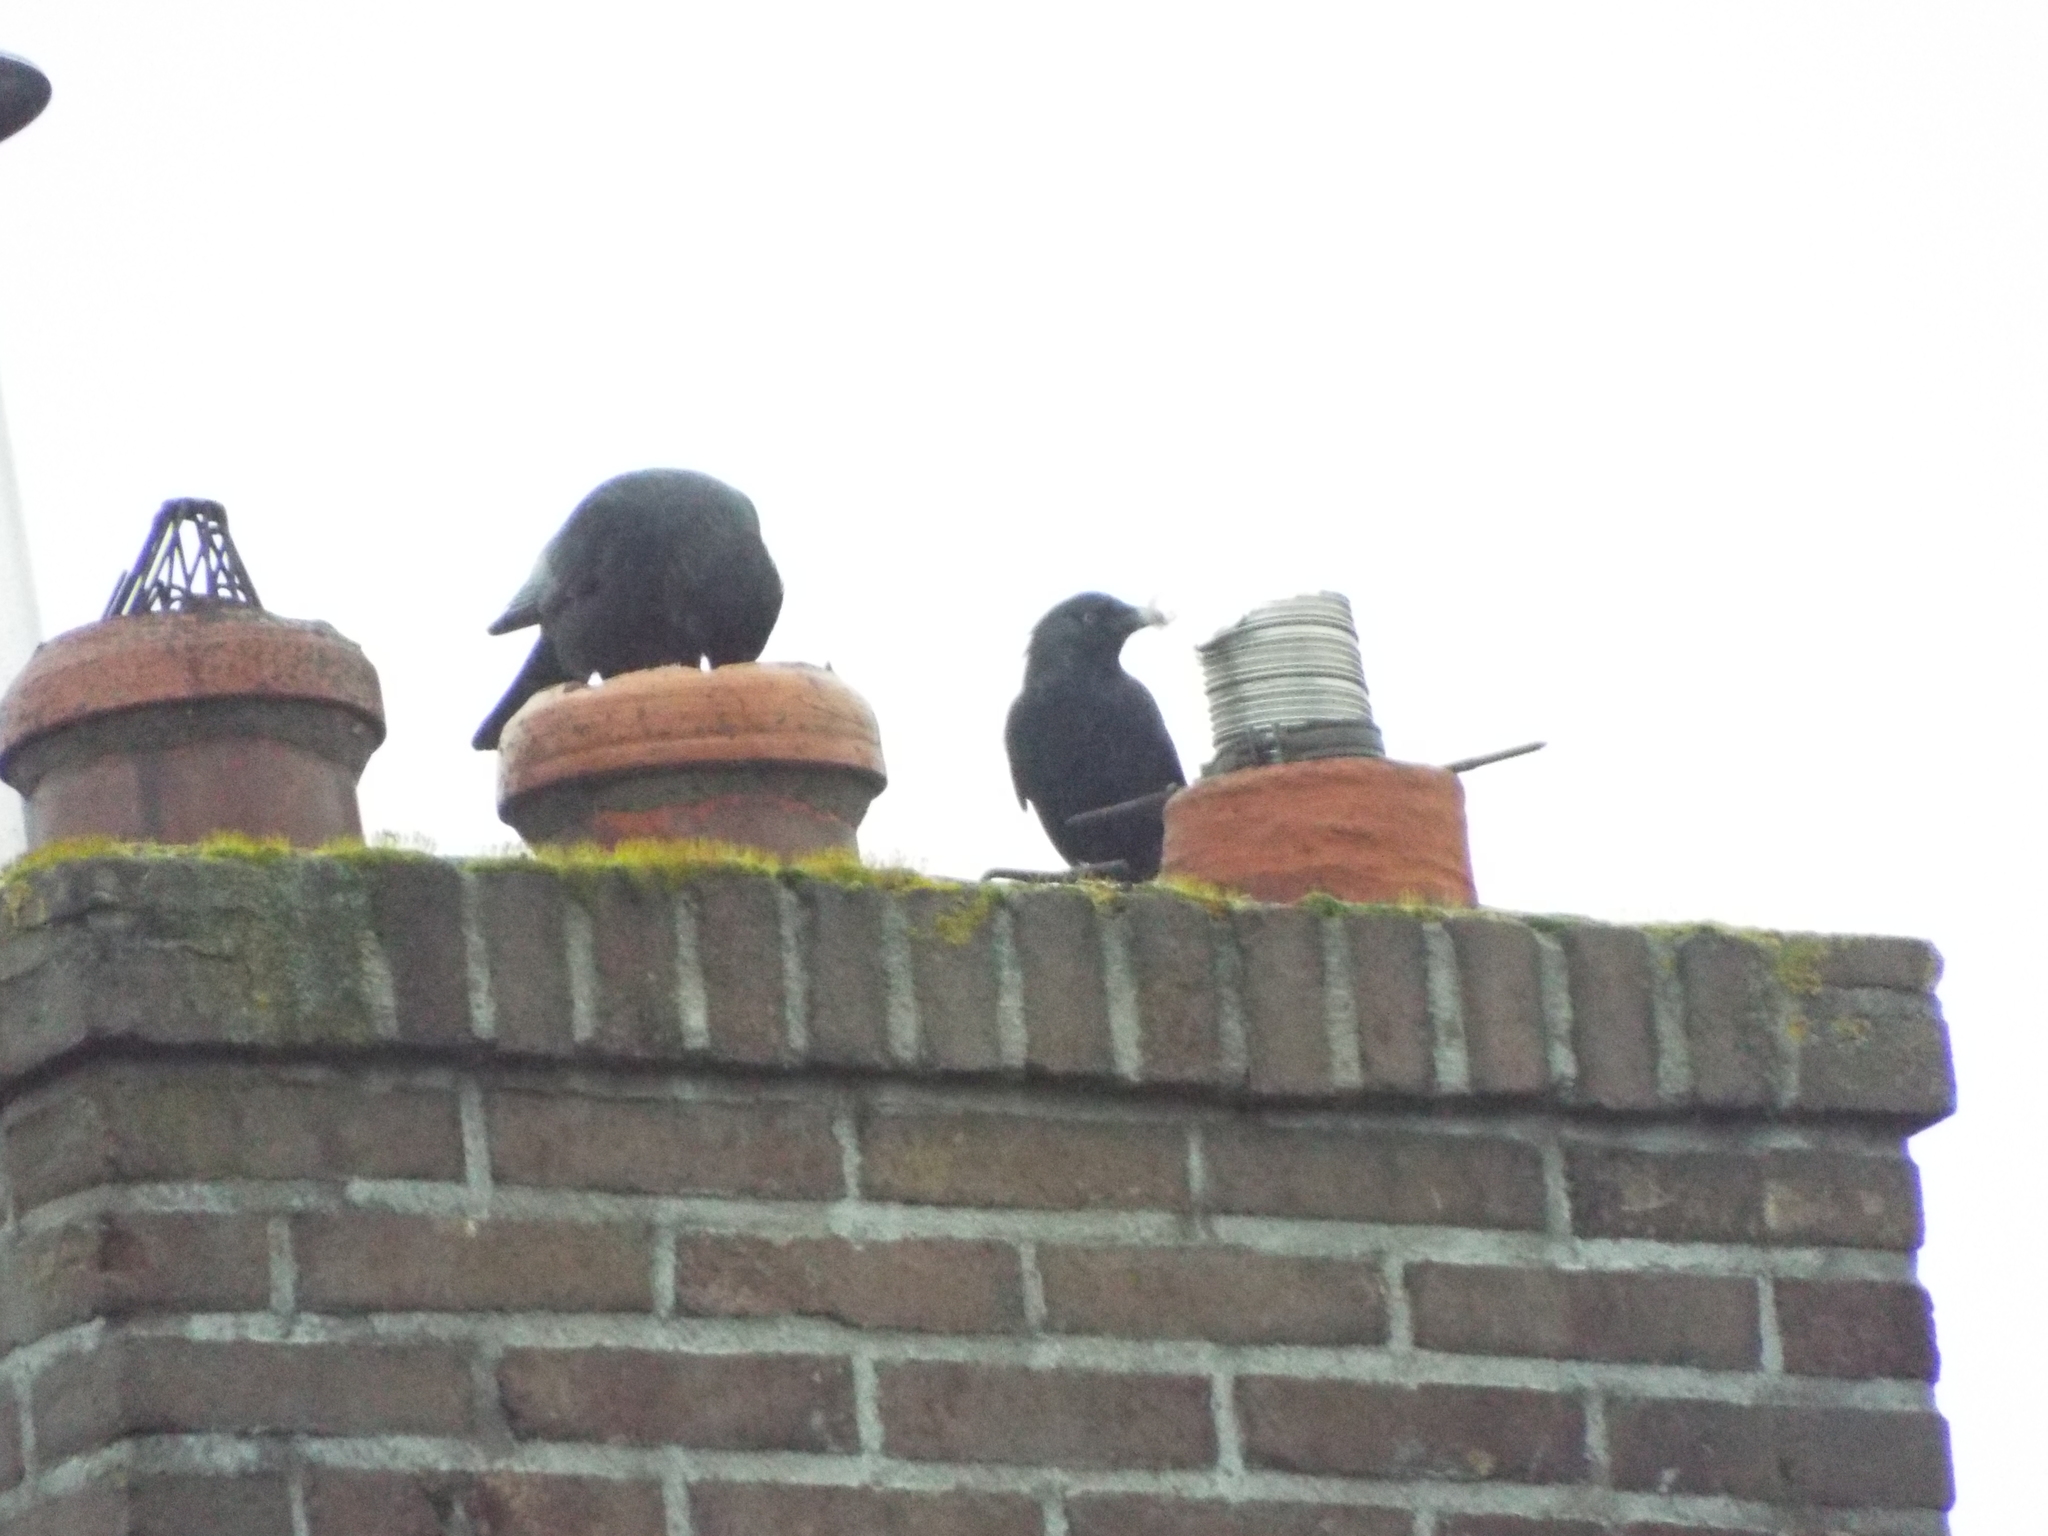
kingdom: Animalia
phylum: Chordata
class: Aves
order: Passeriformes
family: Corvidae
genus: Coloeus
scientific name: Coloeus monedula
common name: Western jackdaw
